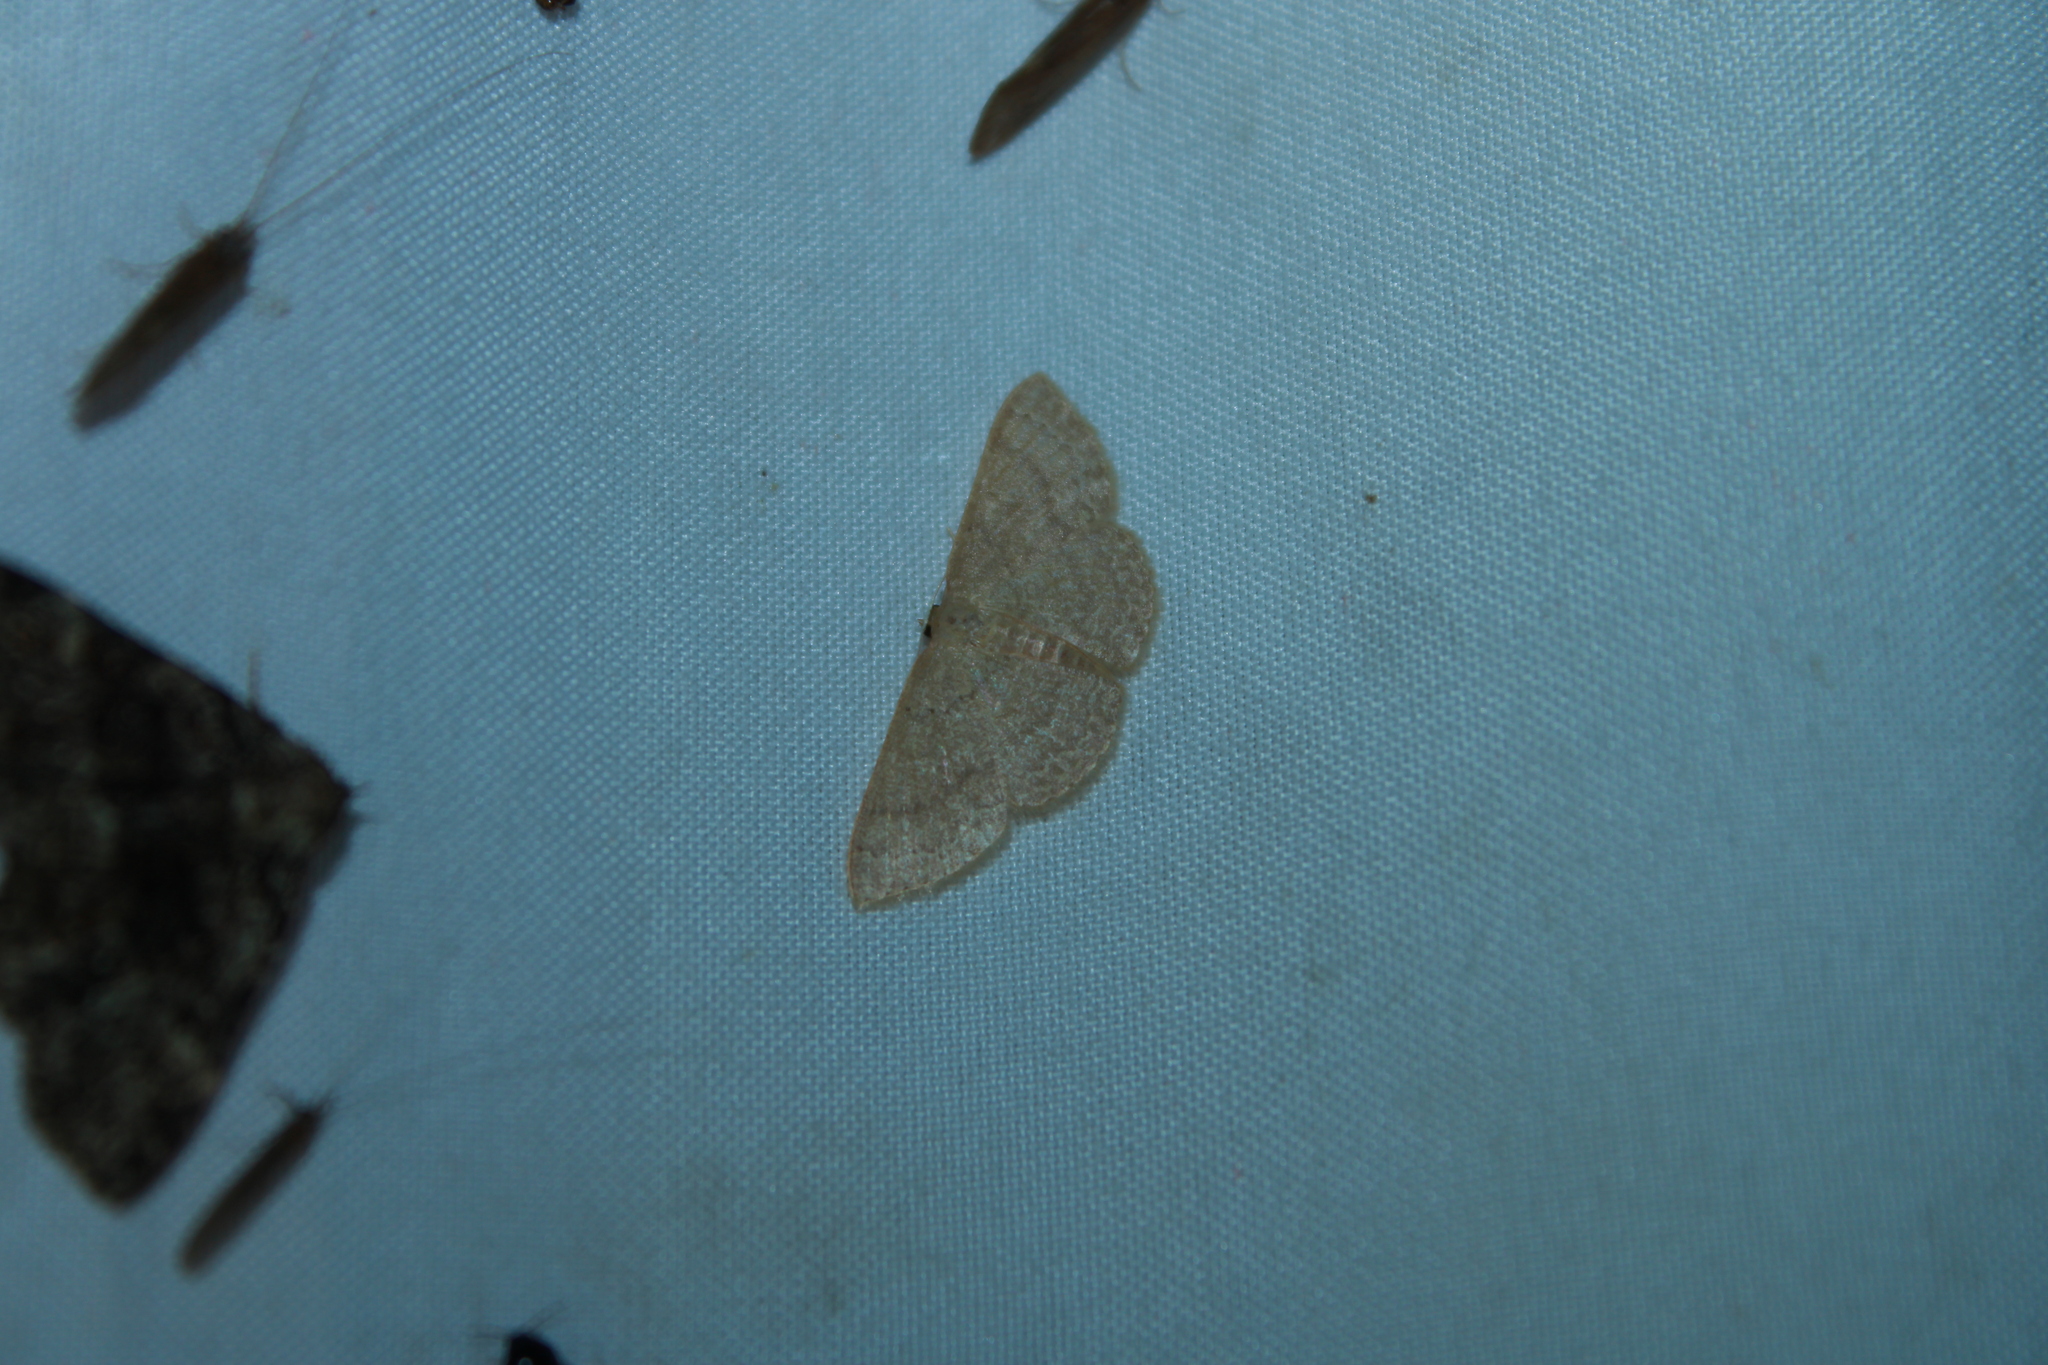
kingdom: Animalia
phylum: Arthropoda
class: Insecta
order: Lepidoptera
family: Geometridae
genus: Pleuroprucha
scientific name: Pleuroprucha insulsaria
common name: Common tan wave
